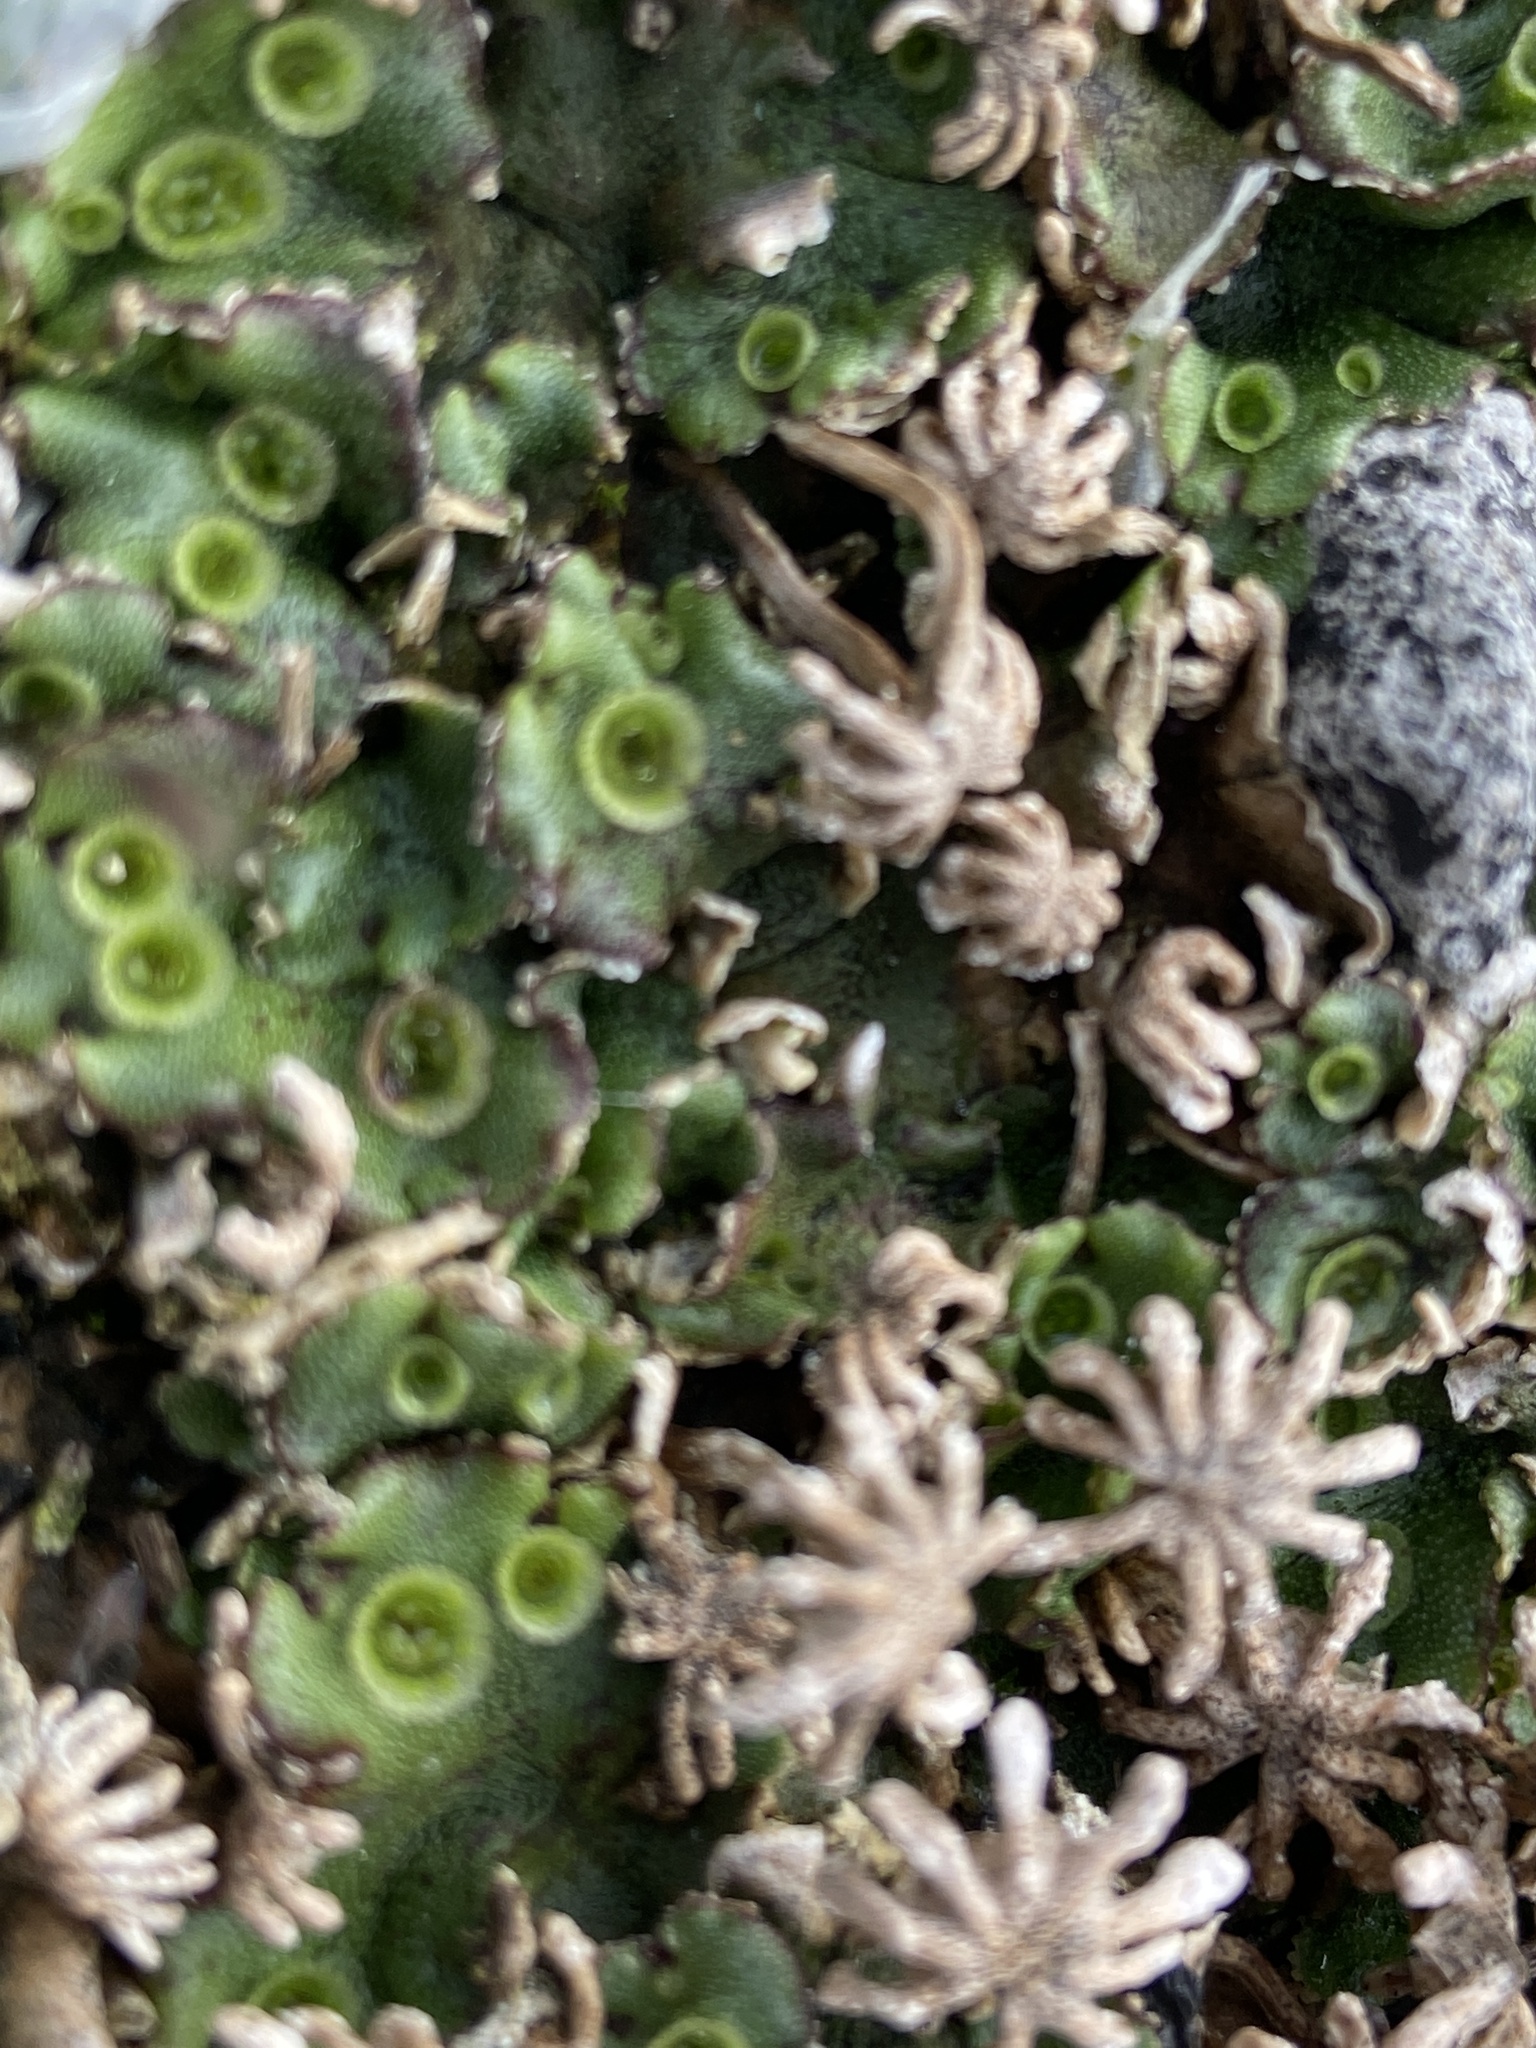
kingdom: Plantae
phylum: Marchantiophyta
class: Marchantiopsida
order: Marchantiales
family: Marchantiaceae
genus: Marchantia
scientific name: Marchantia polymorpha
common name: Common liverwort
